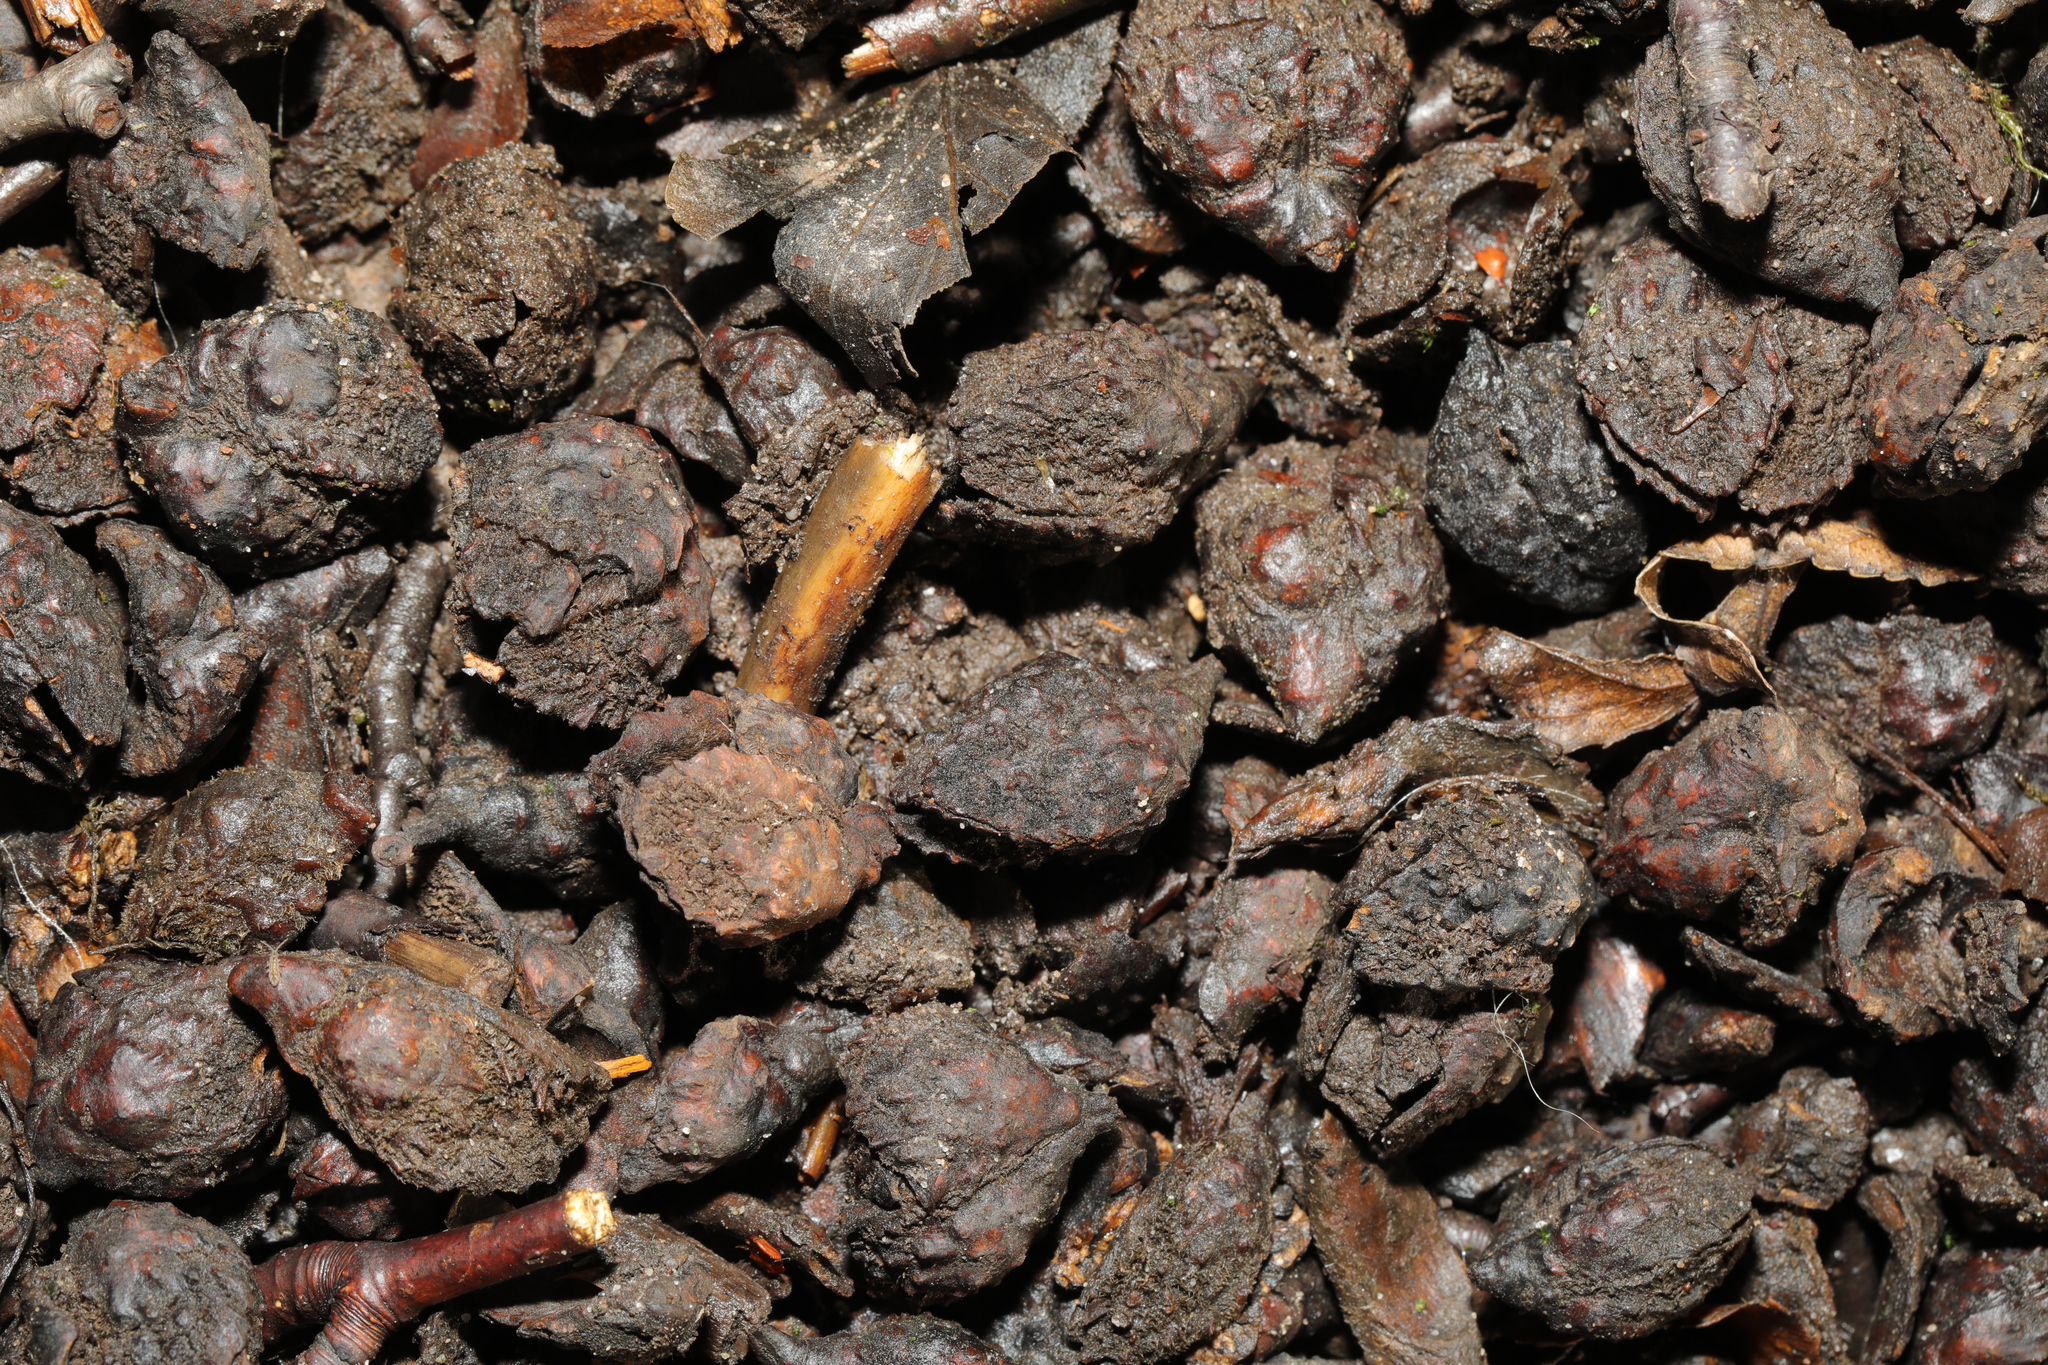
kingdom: Plantae
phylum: Tracheophyta
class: Magnoliopsida
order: Fagales
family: Fagaceae
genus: Fagus
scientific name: Fagus sylvatica
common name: Beech
